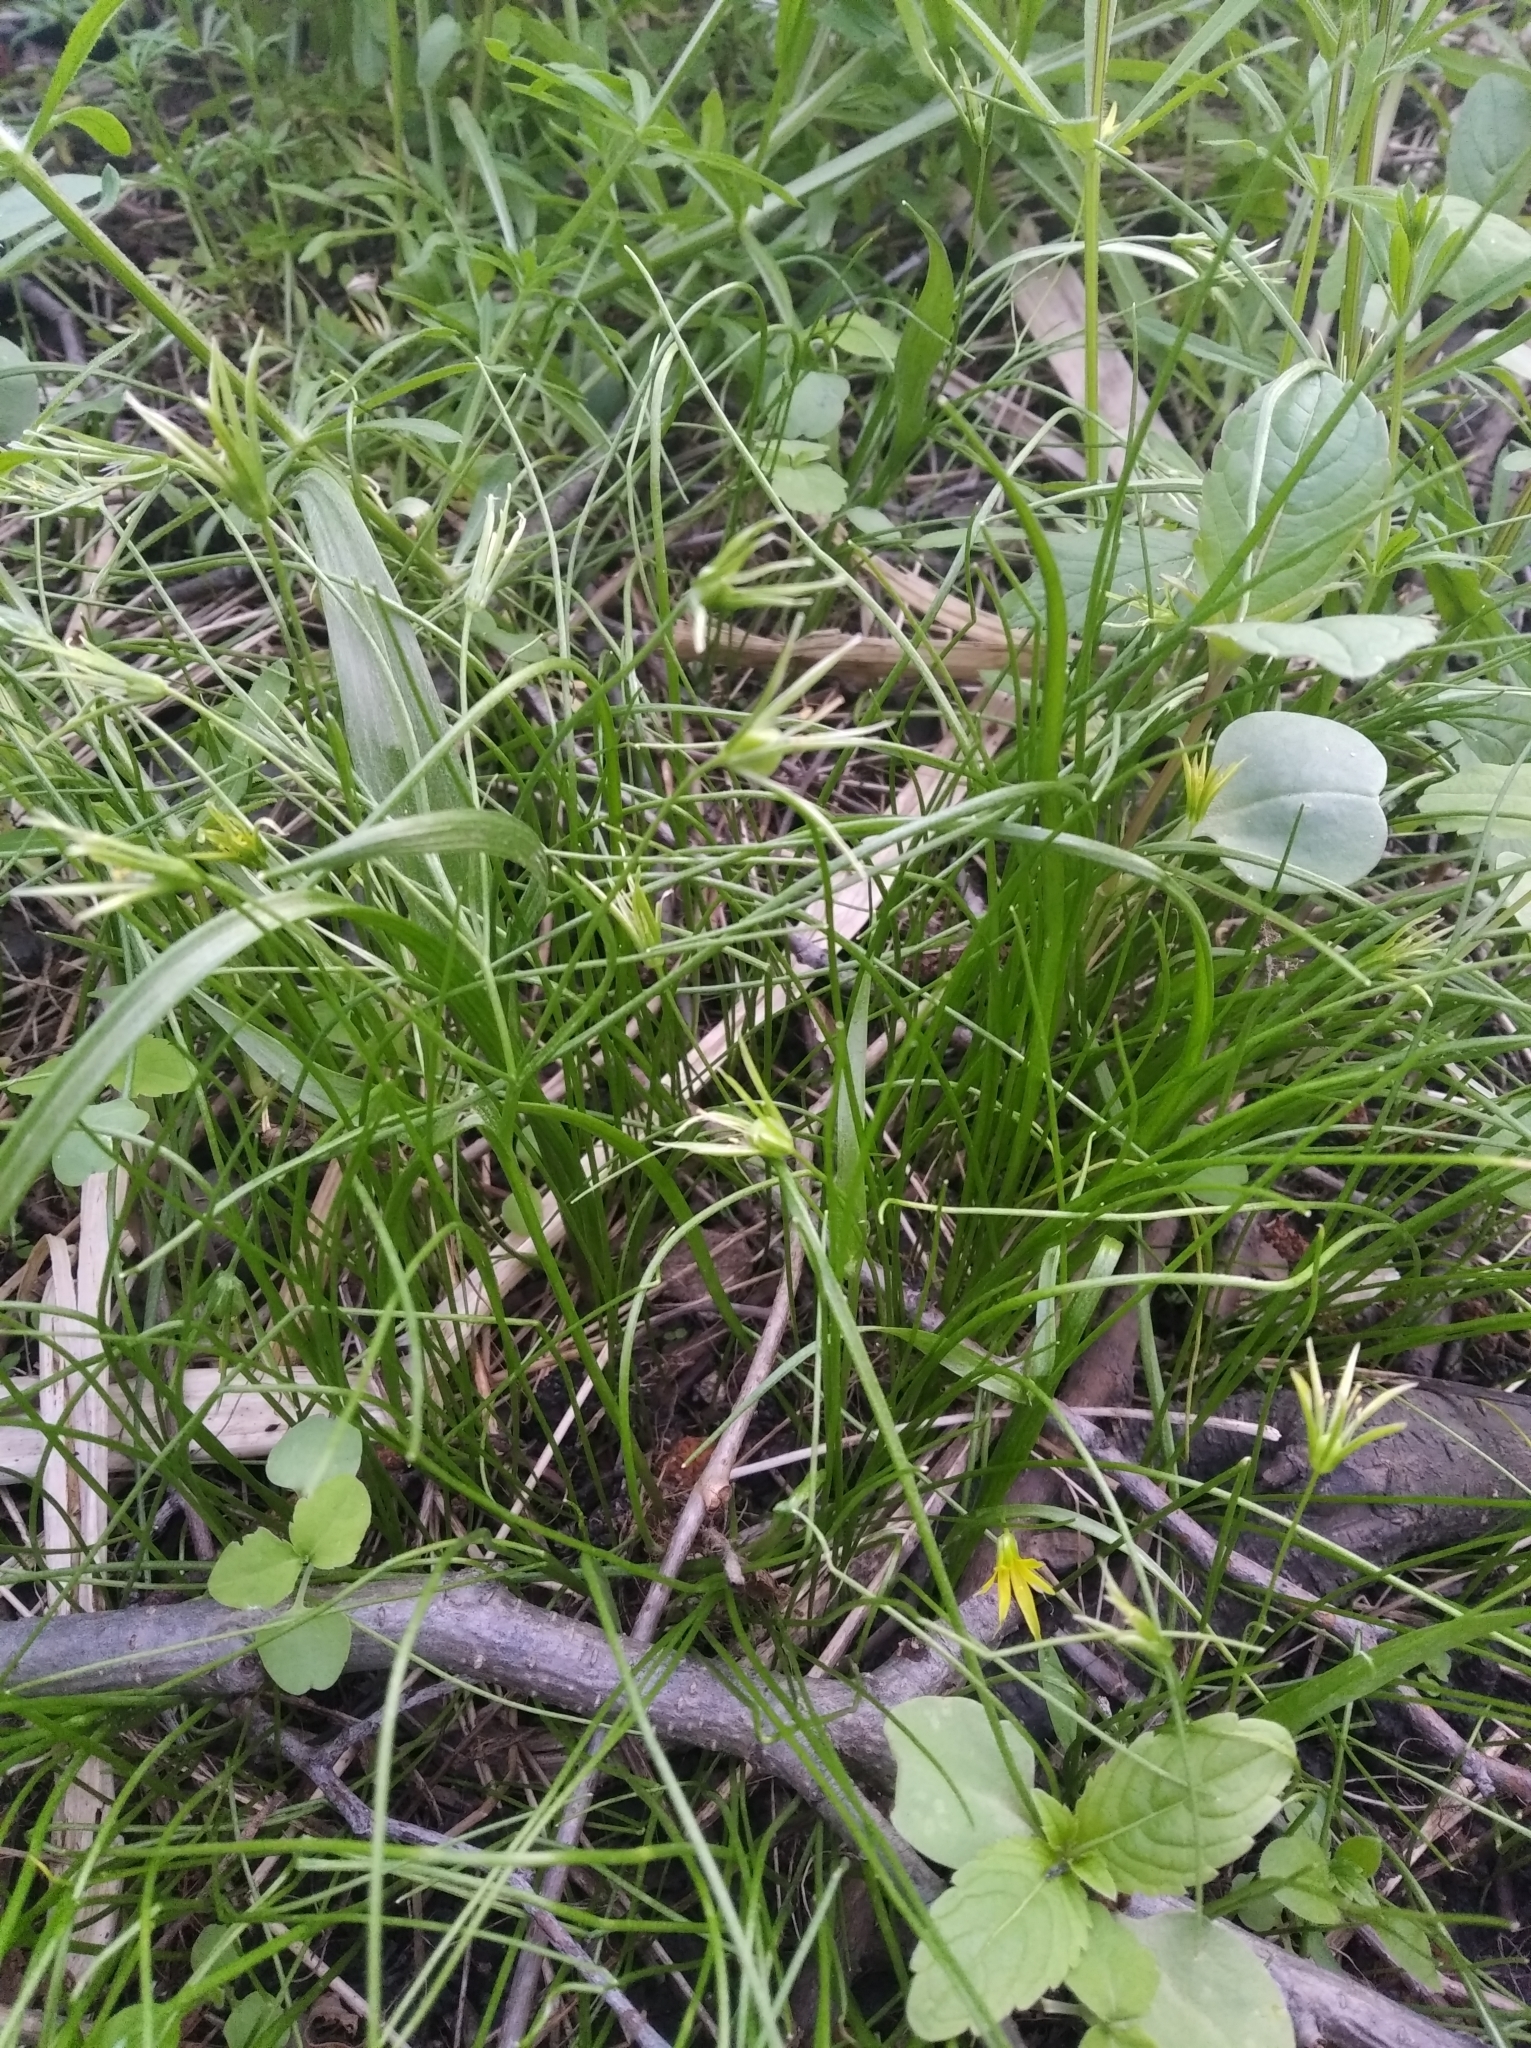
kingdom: Plantae
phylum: Tracheophyta
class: Liliopsida
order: Liliales
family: Liliaceae
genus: Gagea
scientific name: Gagea minima
